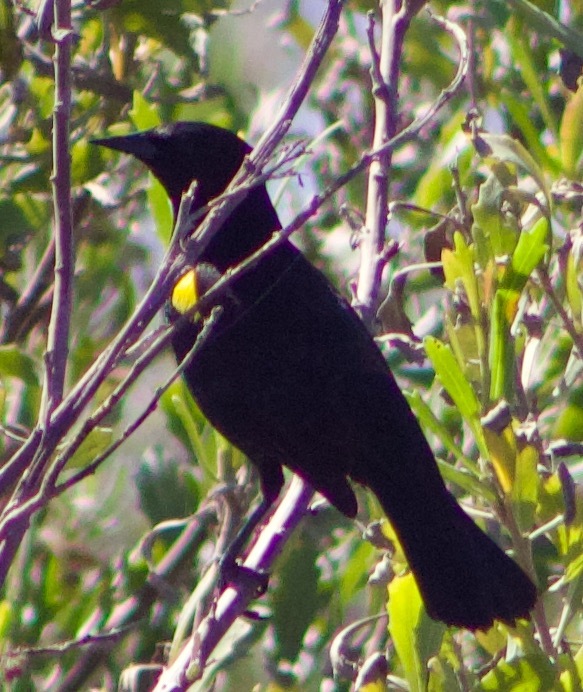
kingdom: Animalia
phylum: Chordata
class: Aves
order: Passeriformes
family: Icteridae
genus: Agelasticus
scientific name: Agelasticus thilius
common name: Yellow-winged blackbird
